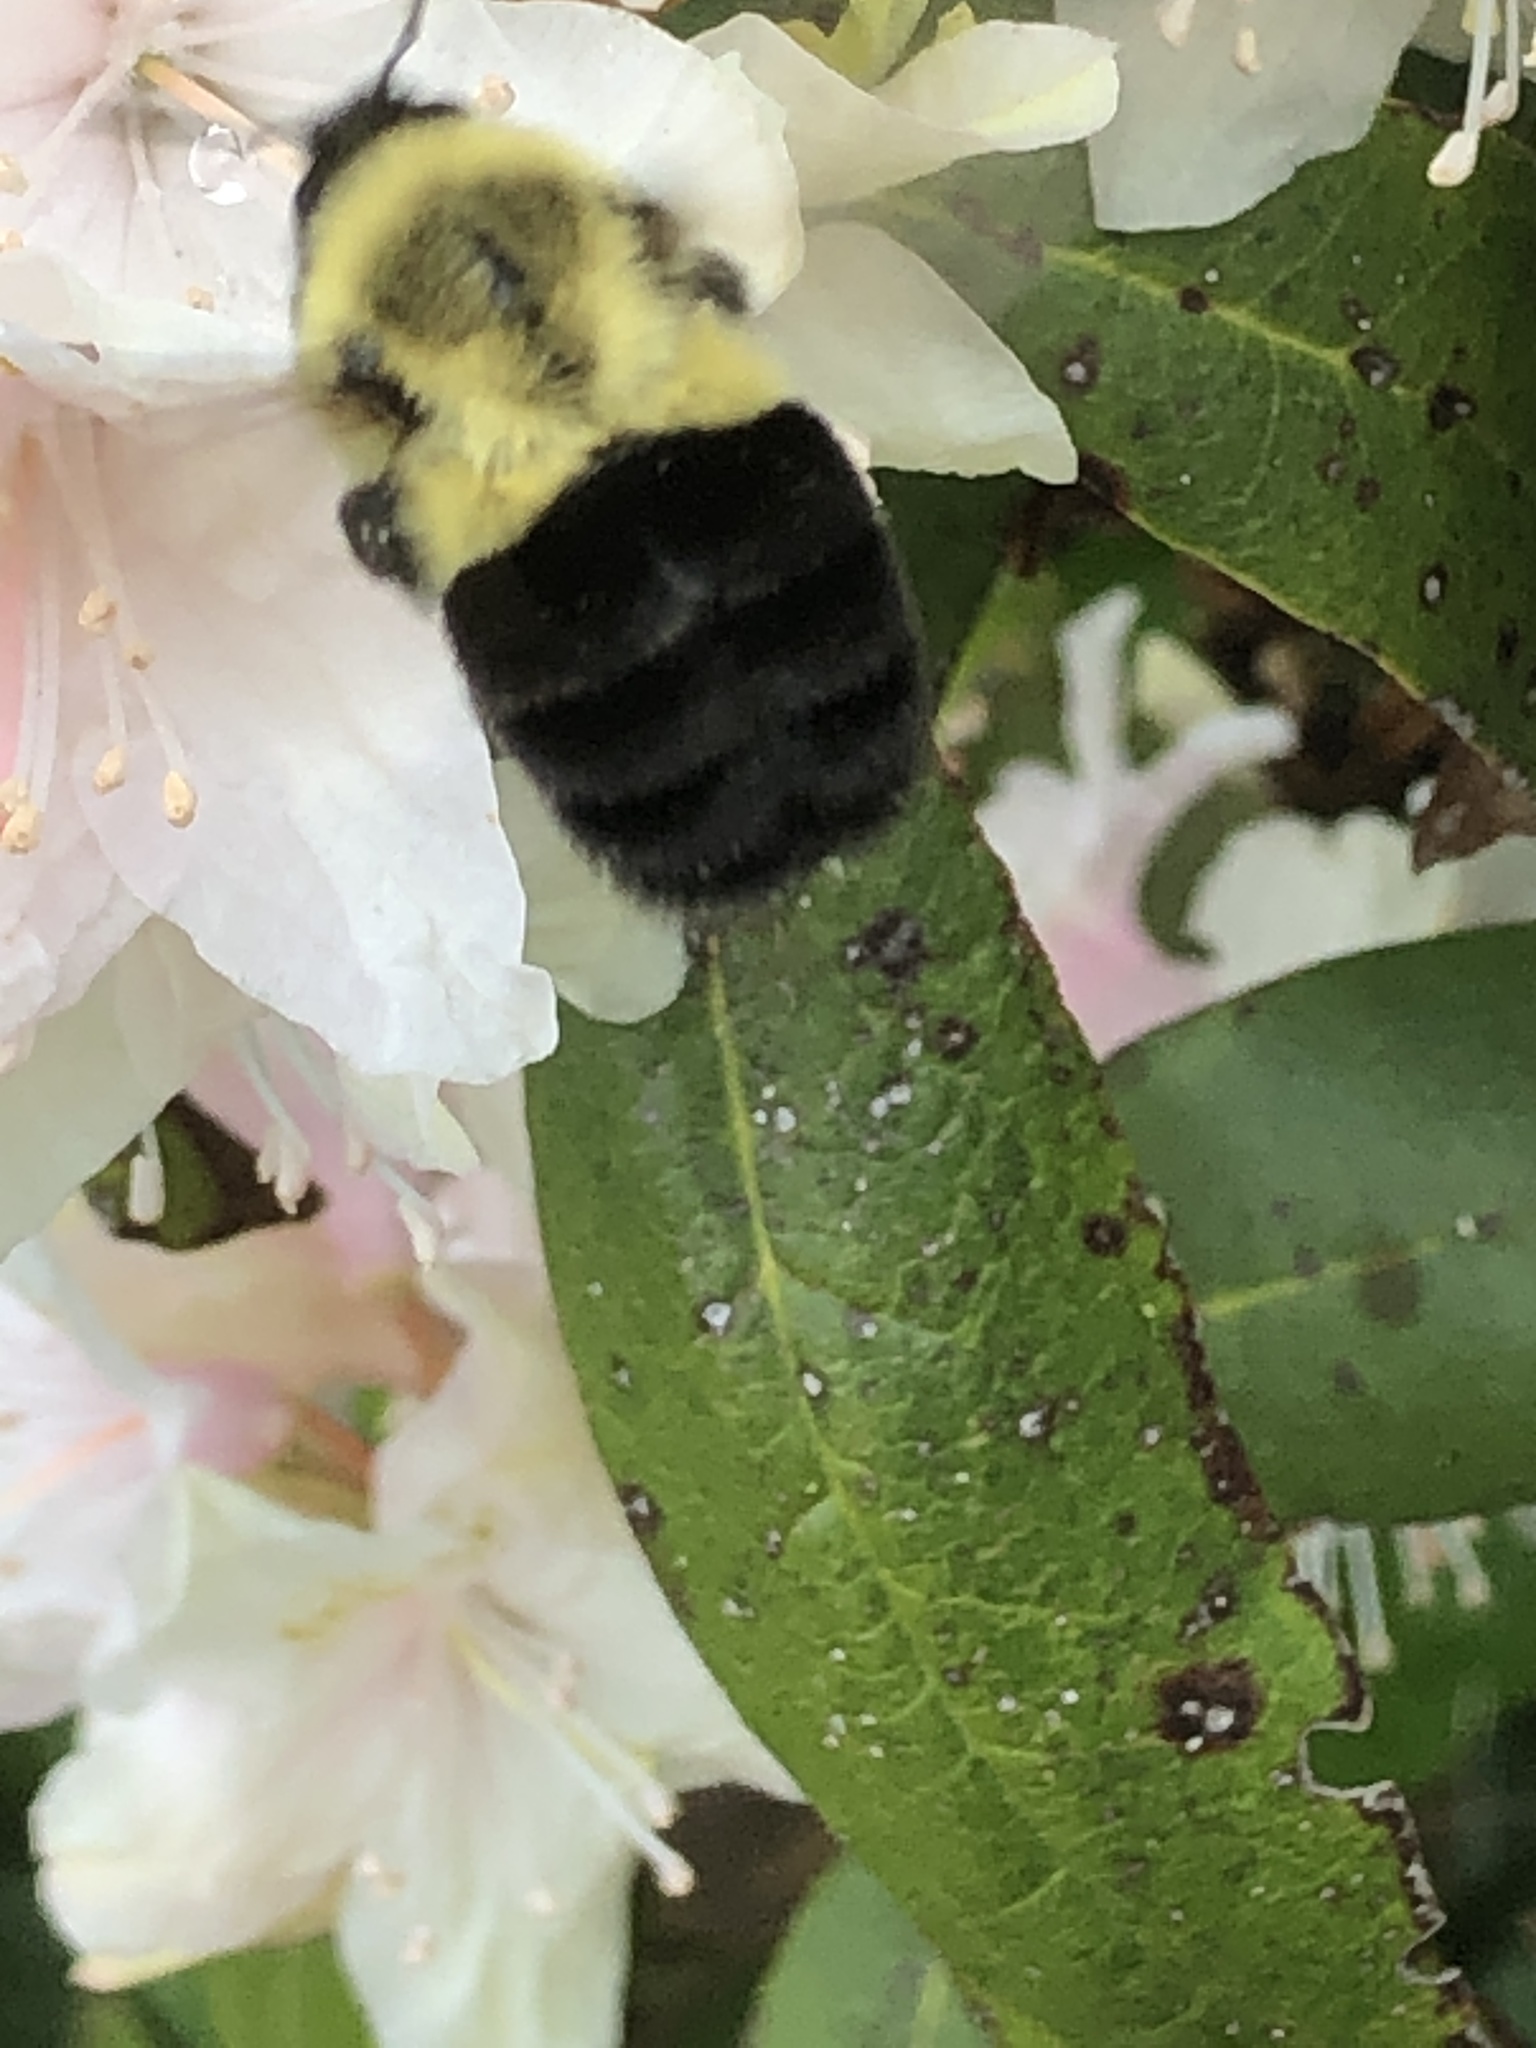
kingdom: Animalia
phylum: Arthropoda
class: Insecta
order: Hymenoptera
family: Apidae
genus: Bombus
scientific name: Bombus impatiens
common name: Common eastern bumble bee
